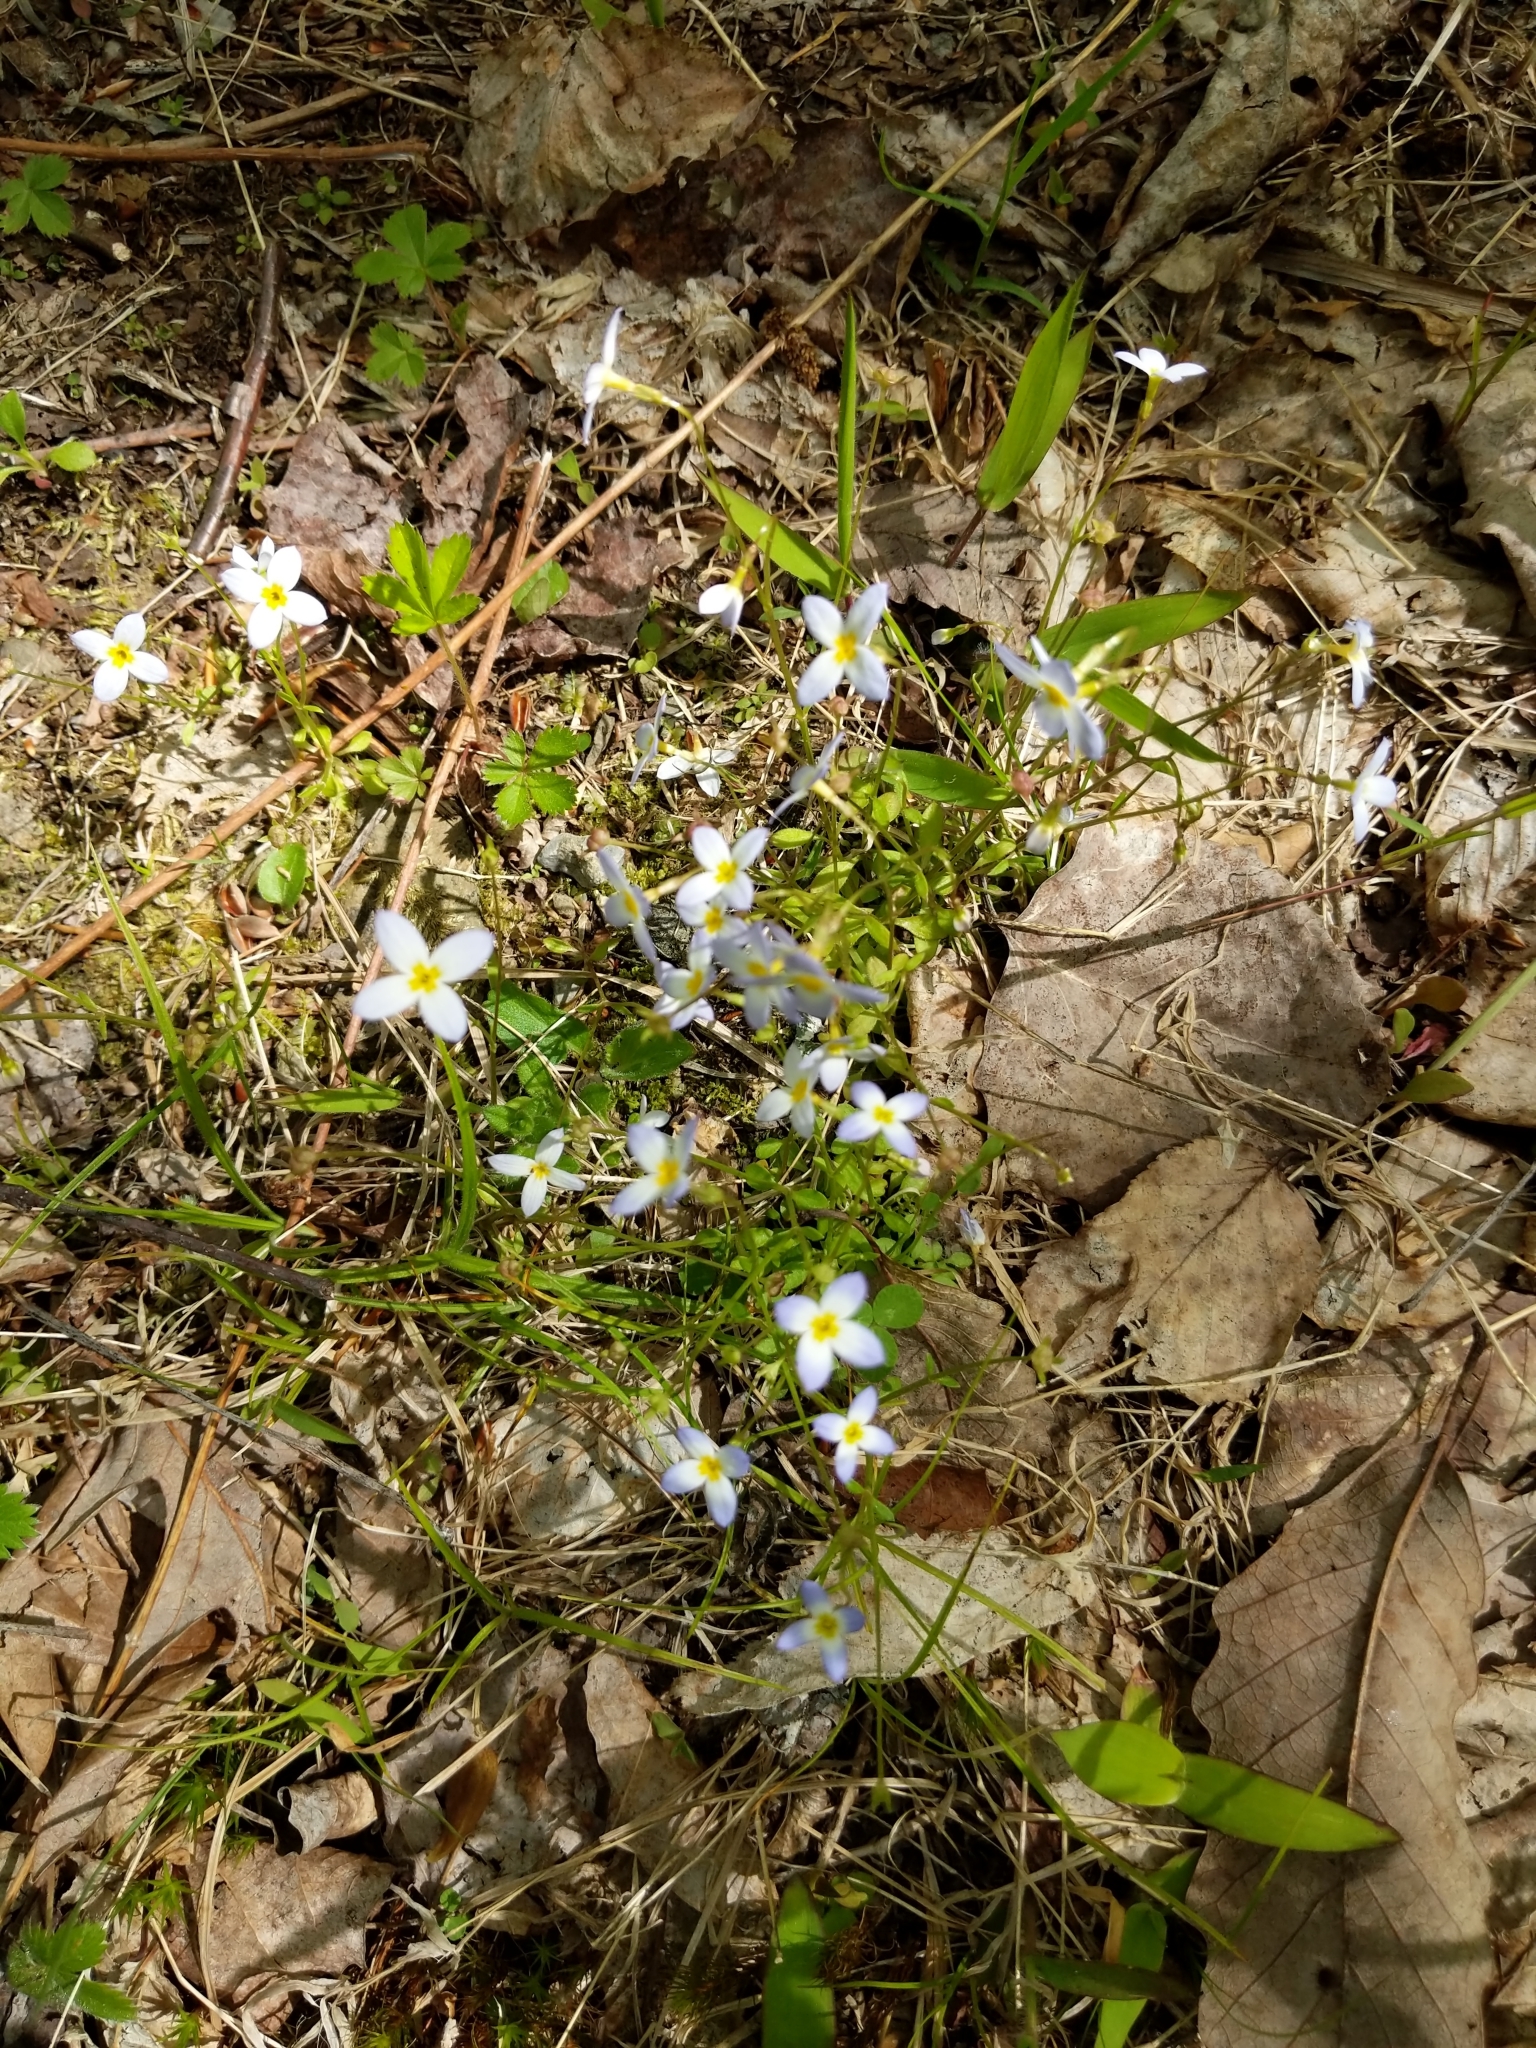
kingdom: Plantae
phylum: Tracheophyta
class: Magnoliopsida
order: Gentianales
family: Rubiaceae
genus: Houstonia
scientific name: Houstonia caerulea
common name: Bluets
